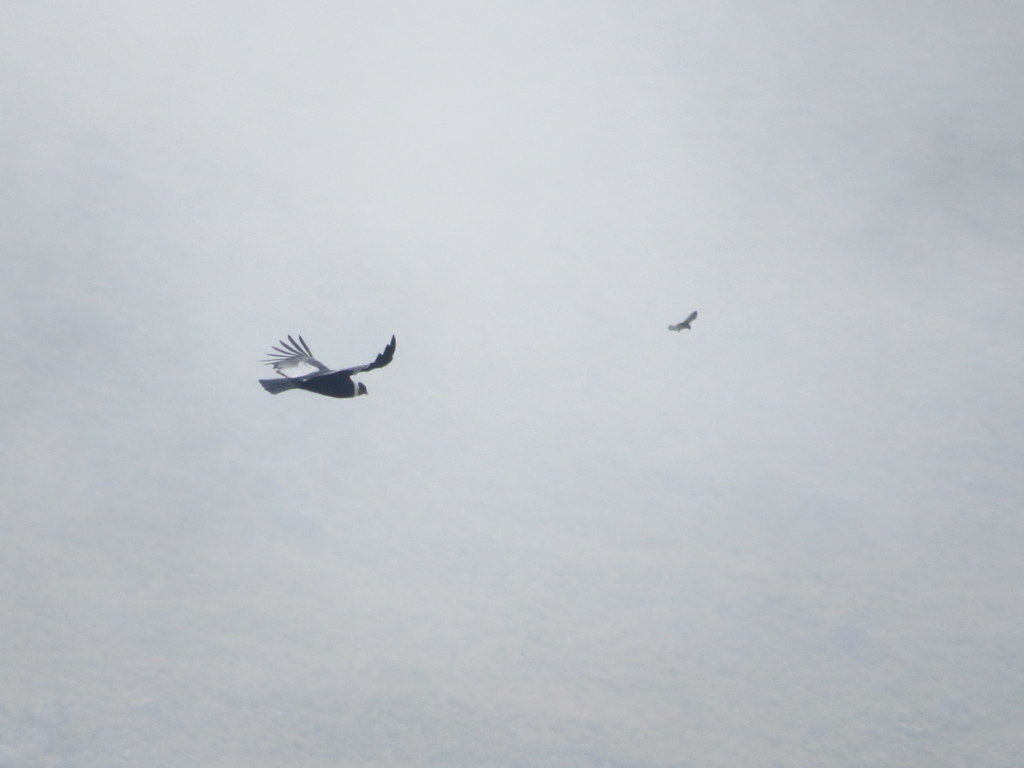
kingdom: Animalia
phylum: Chordata
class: Aves
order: Accipitriformes
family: Cathartidae
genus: Vultur
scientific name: Vultur gryphus
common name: Andean condor
